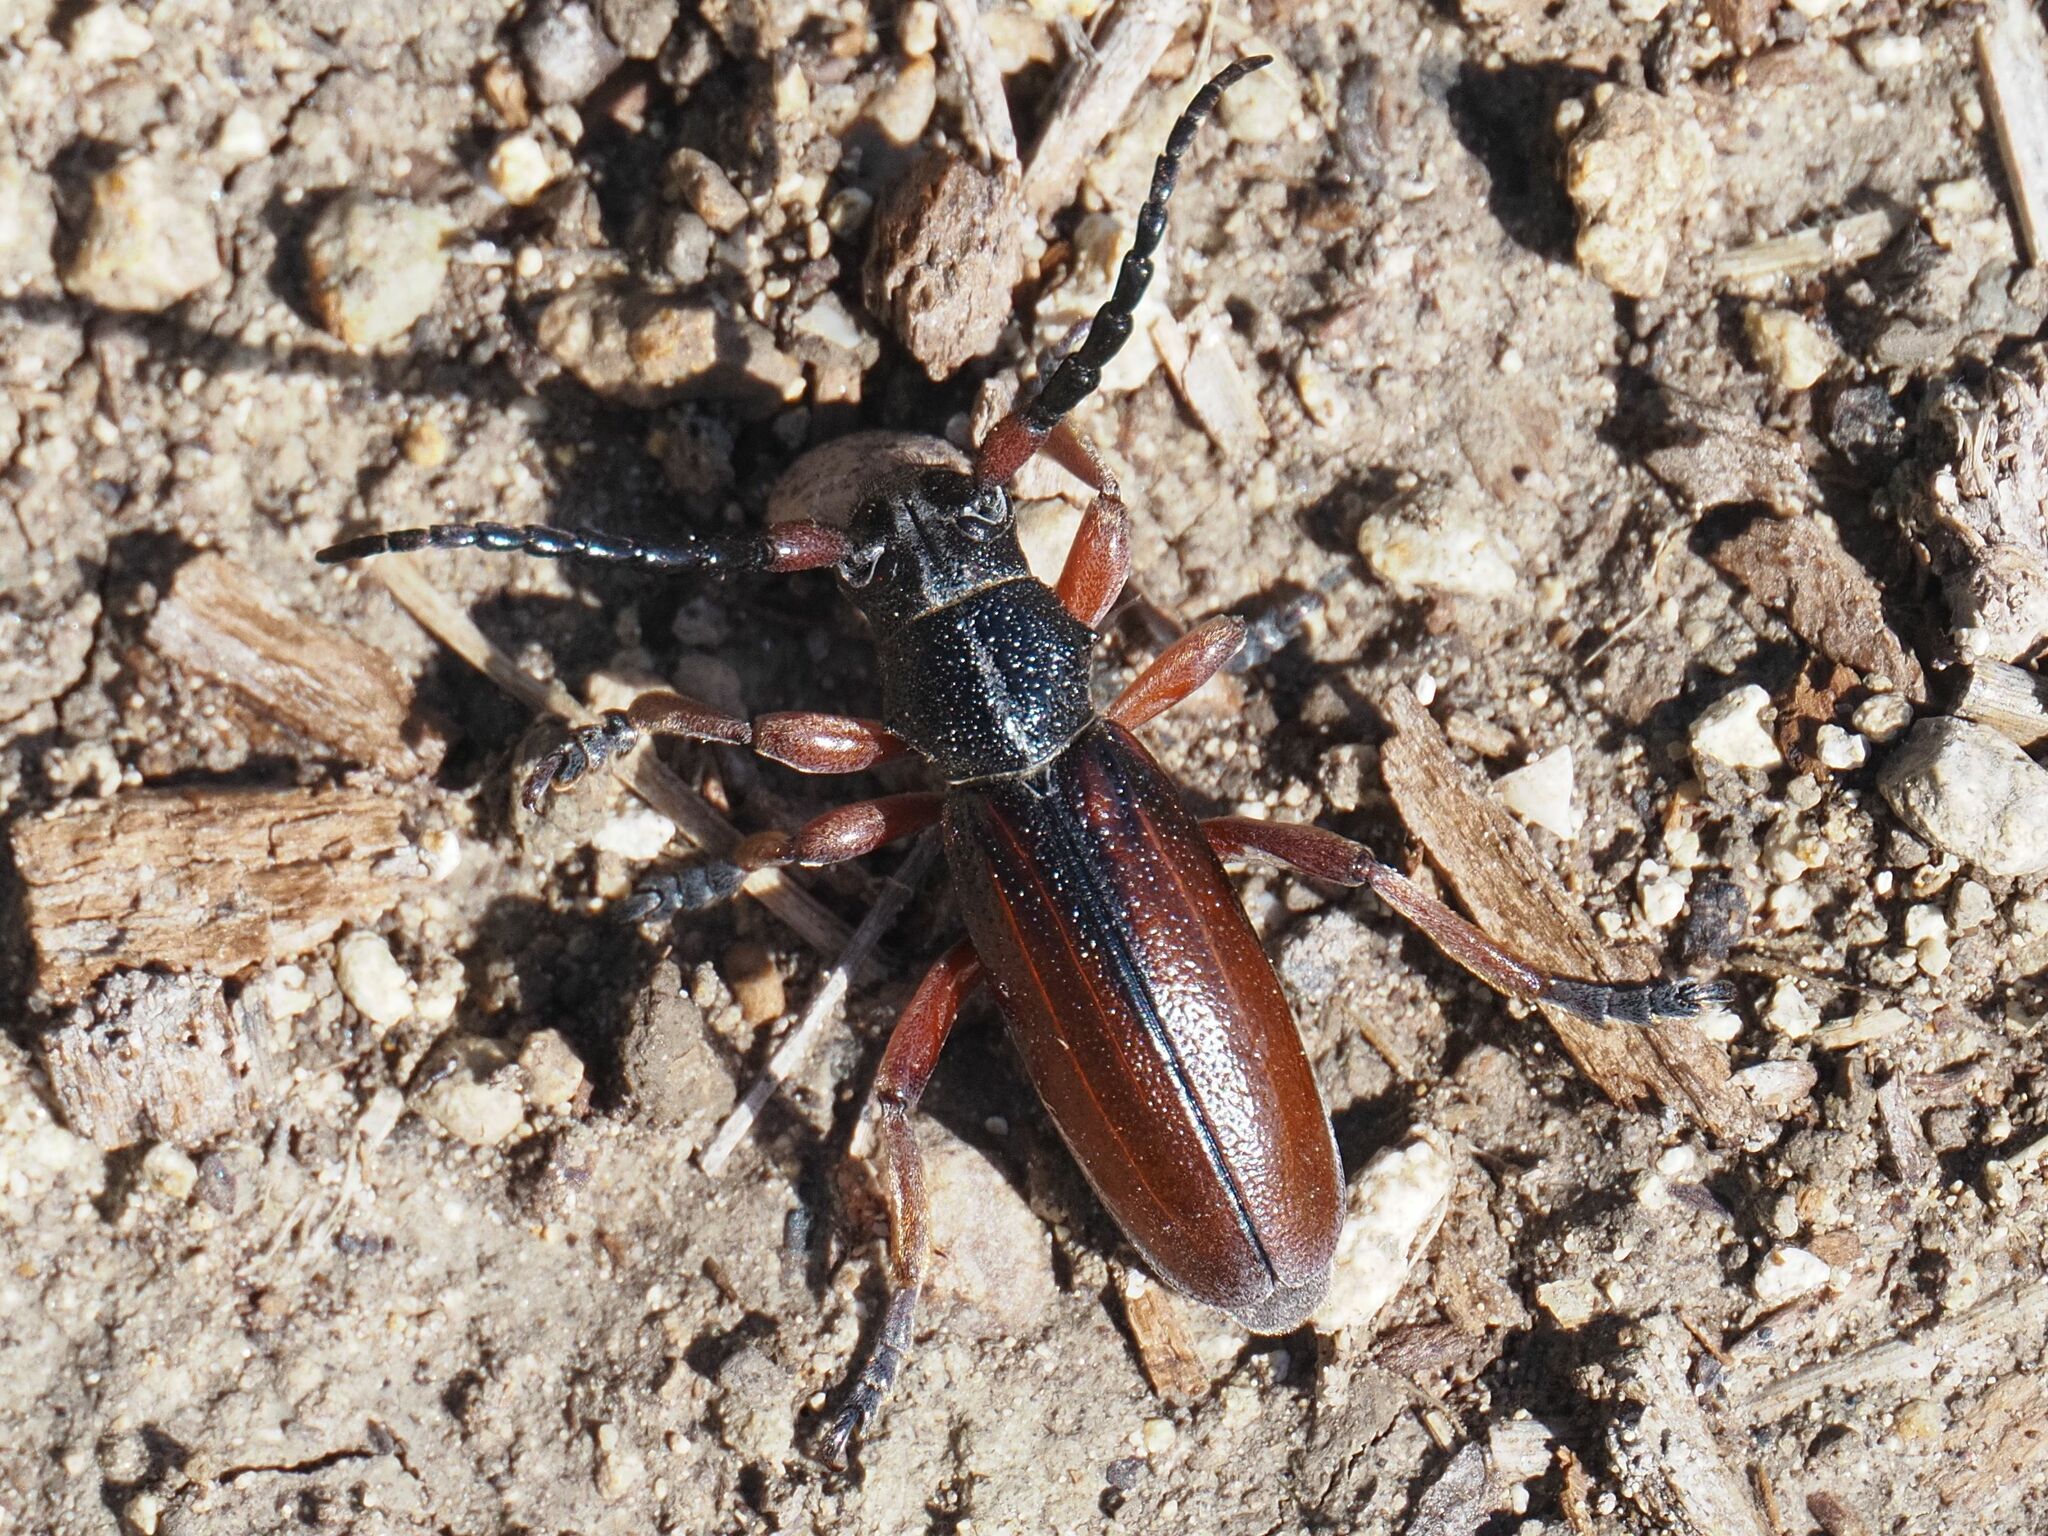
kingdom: Animalia
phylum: Arthropoda
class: Insecta
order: Coleoptera
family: Cerambycidae
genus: Dorcadion
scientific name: Dorcadion fulvum
